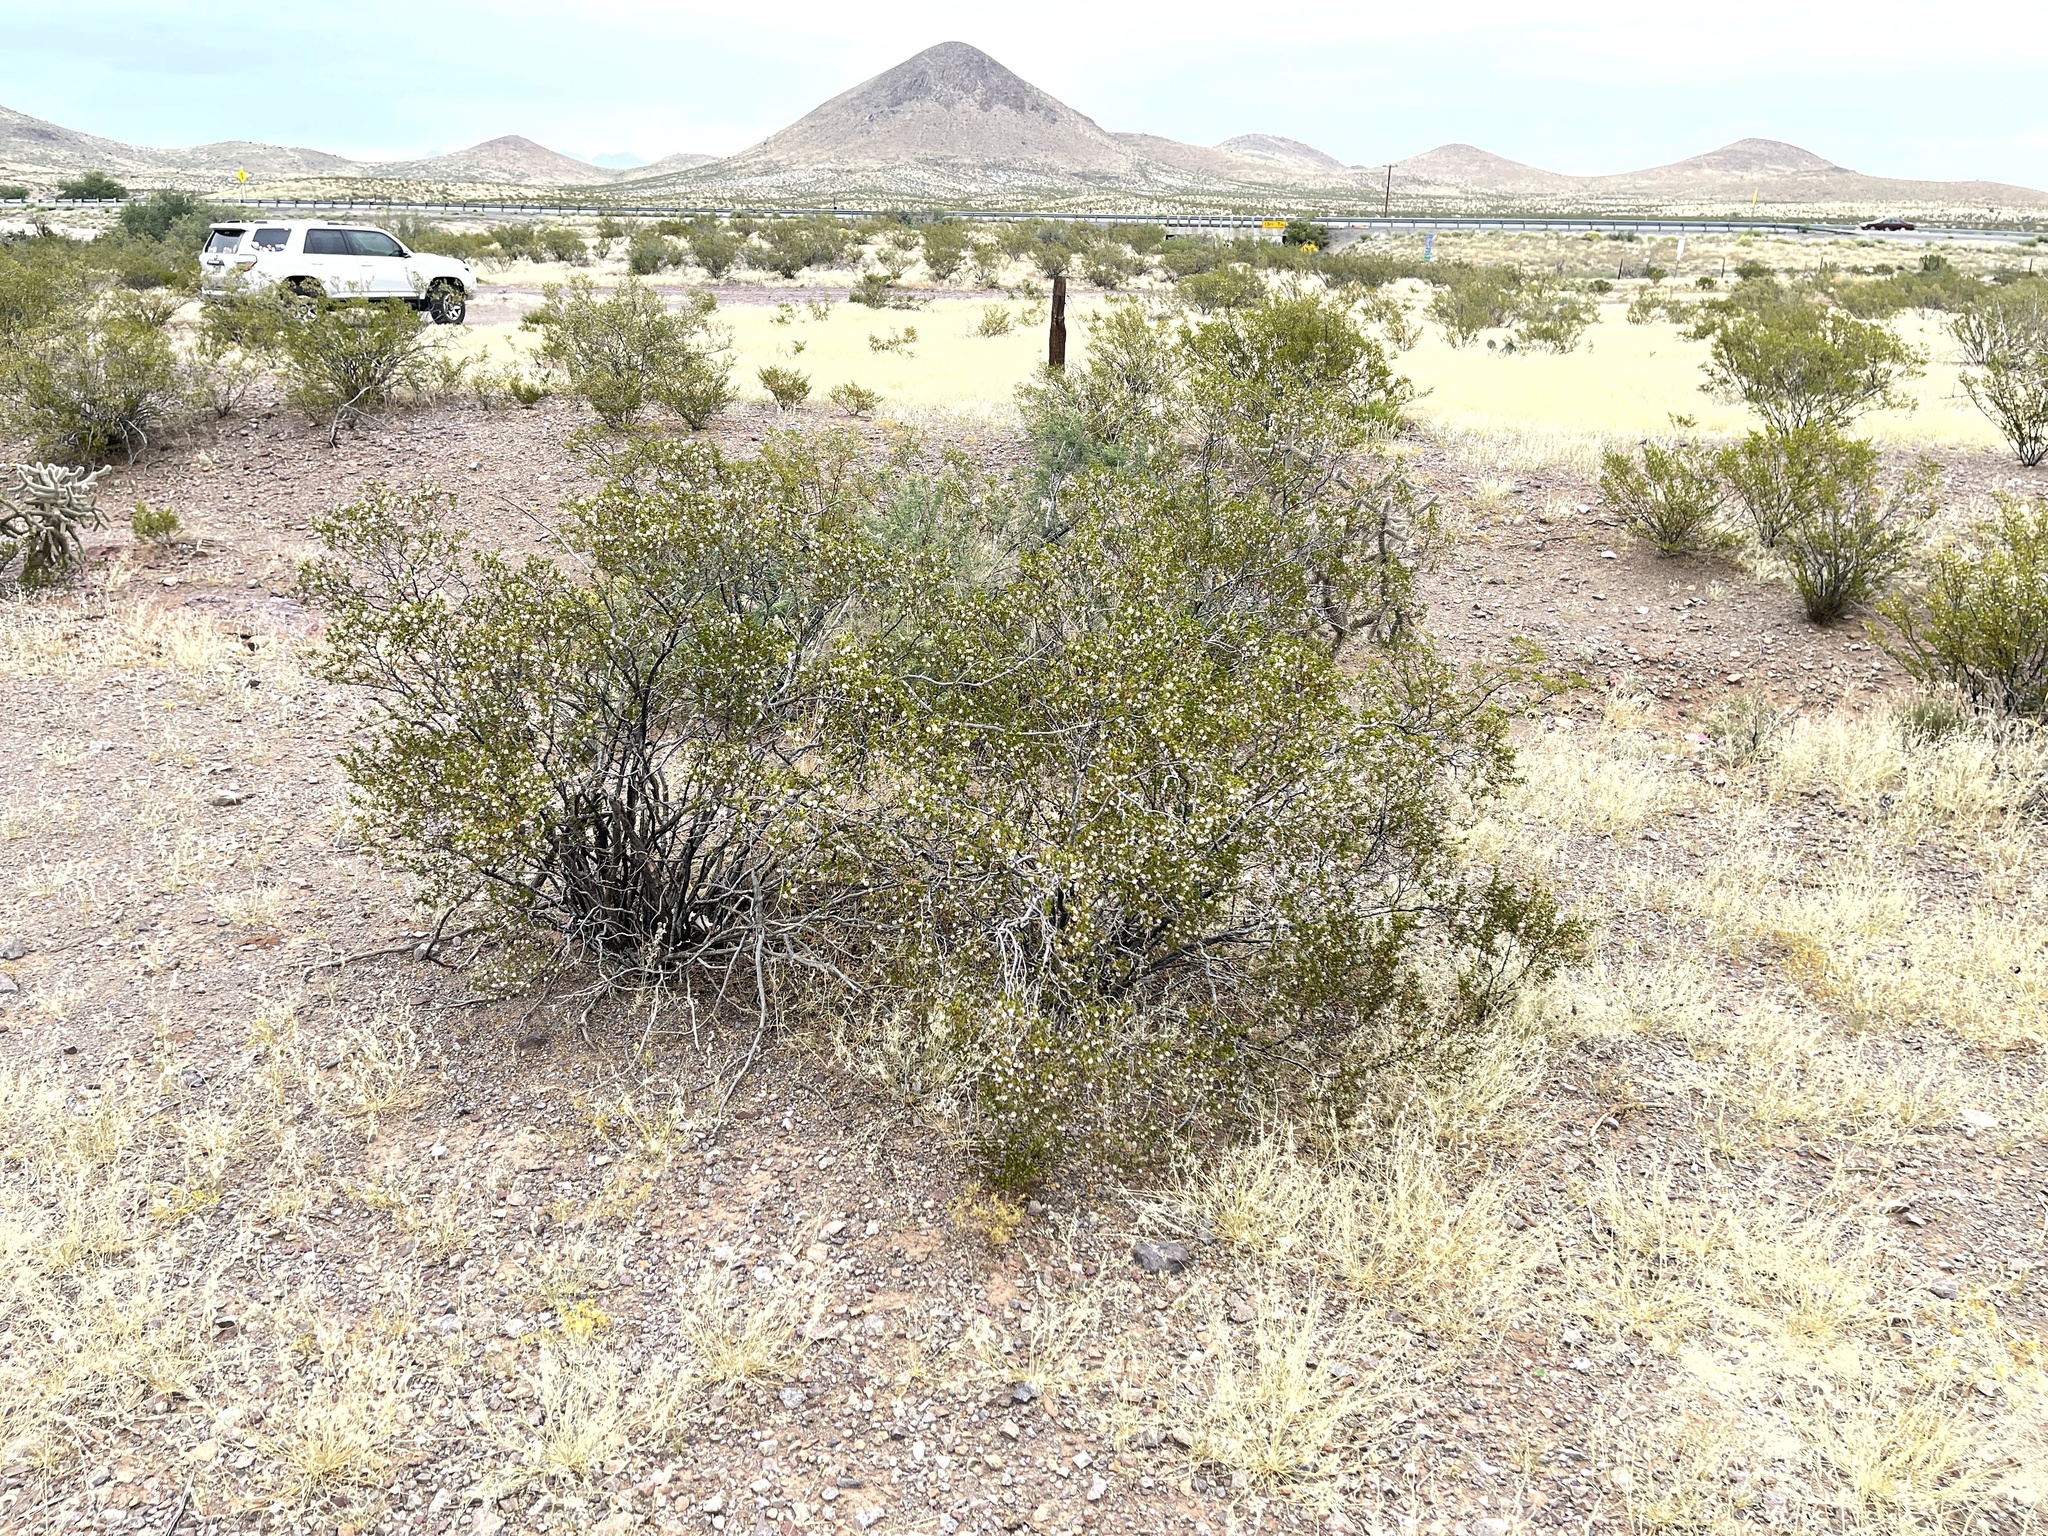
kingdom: Plantae
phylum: Tracheophyta
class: Magnoliopsida
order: Zygophyllales
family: Zygophyllaceae
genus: Larrea
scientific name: Larrea tridentata
